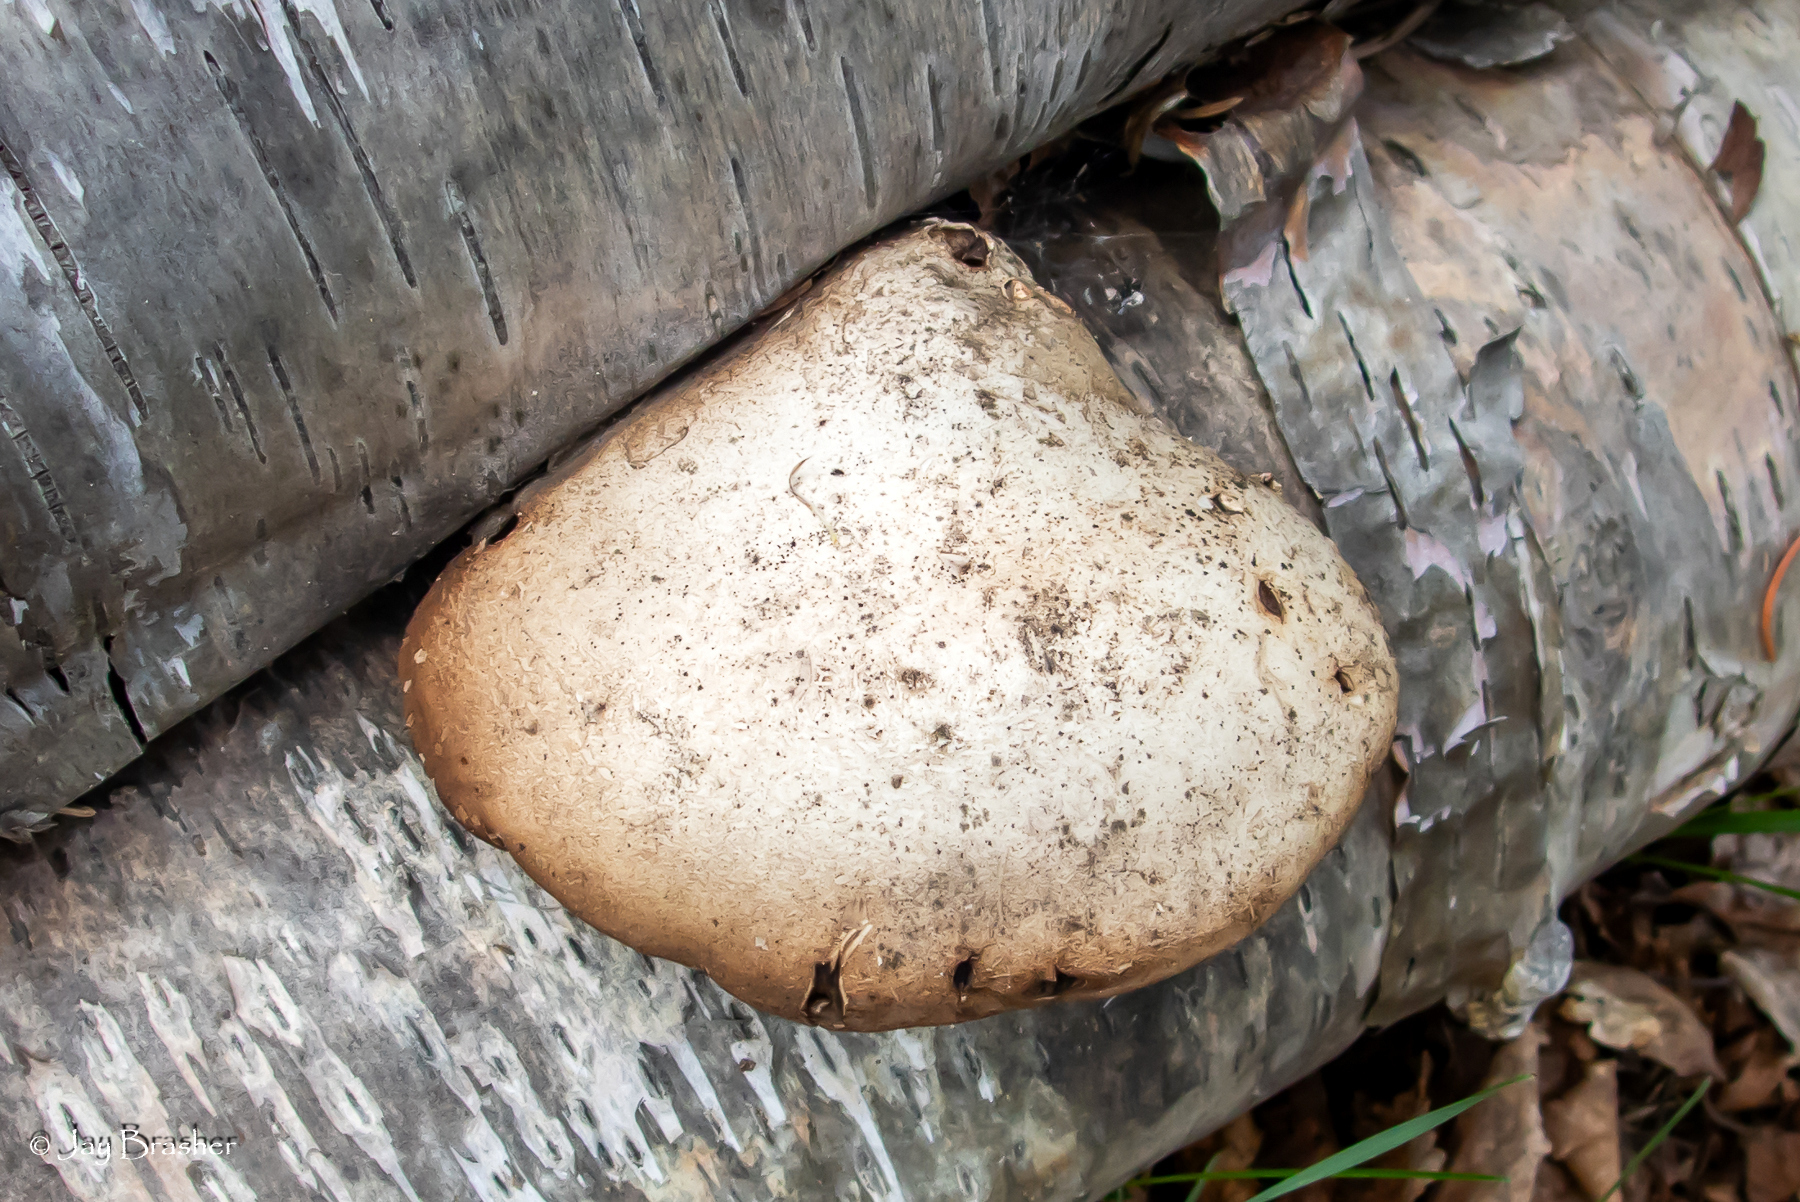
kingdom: Fungi
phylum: Basidiomycota
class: Agaricomycetes
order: Polyporales
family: Fomitopsidaceae
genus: Fomitopsis
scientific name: Fomitopsis betulina
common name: Birch polypore
